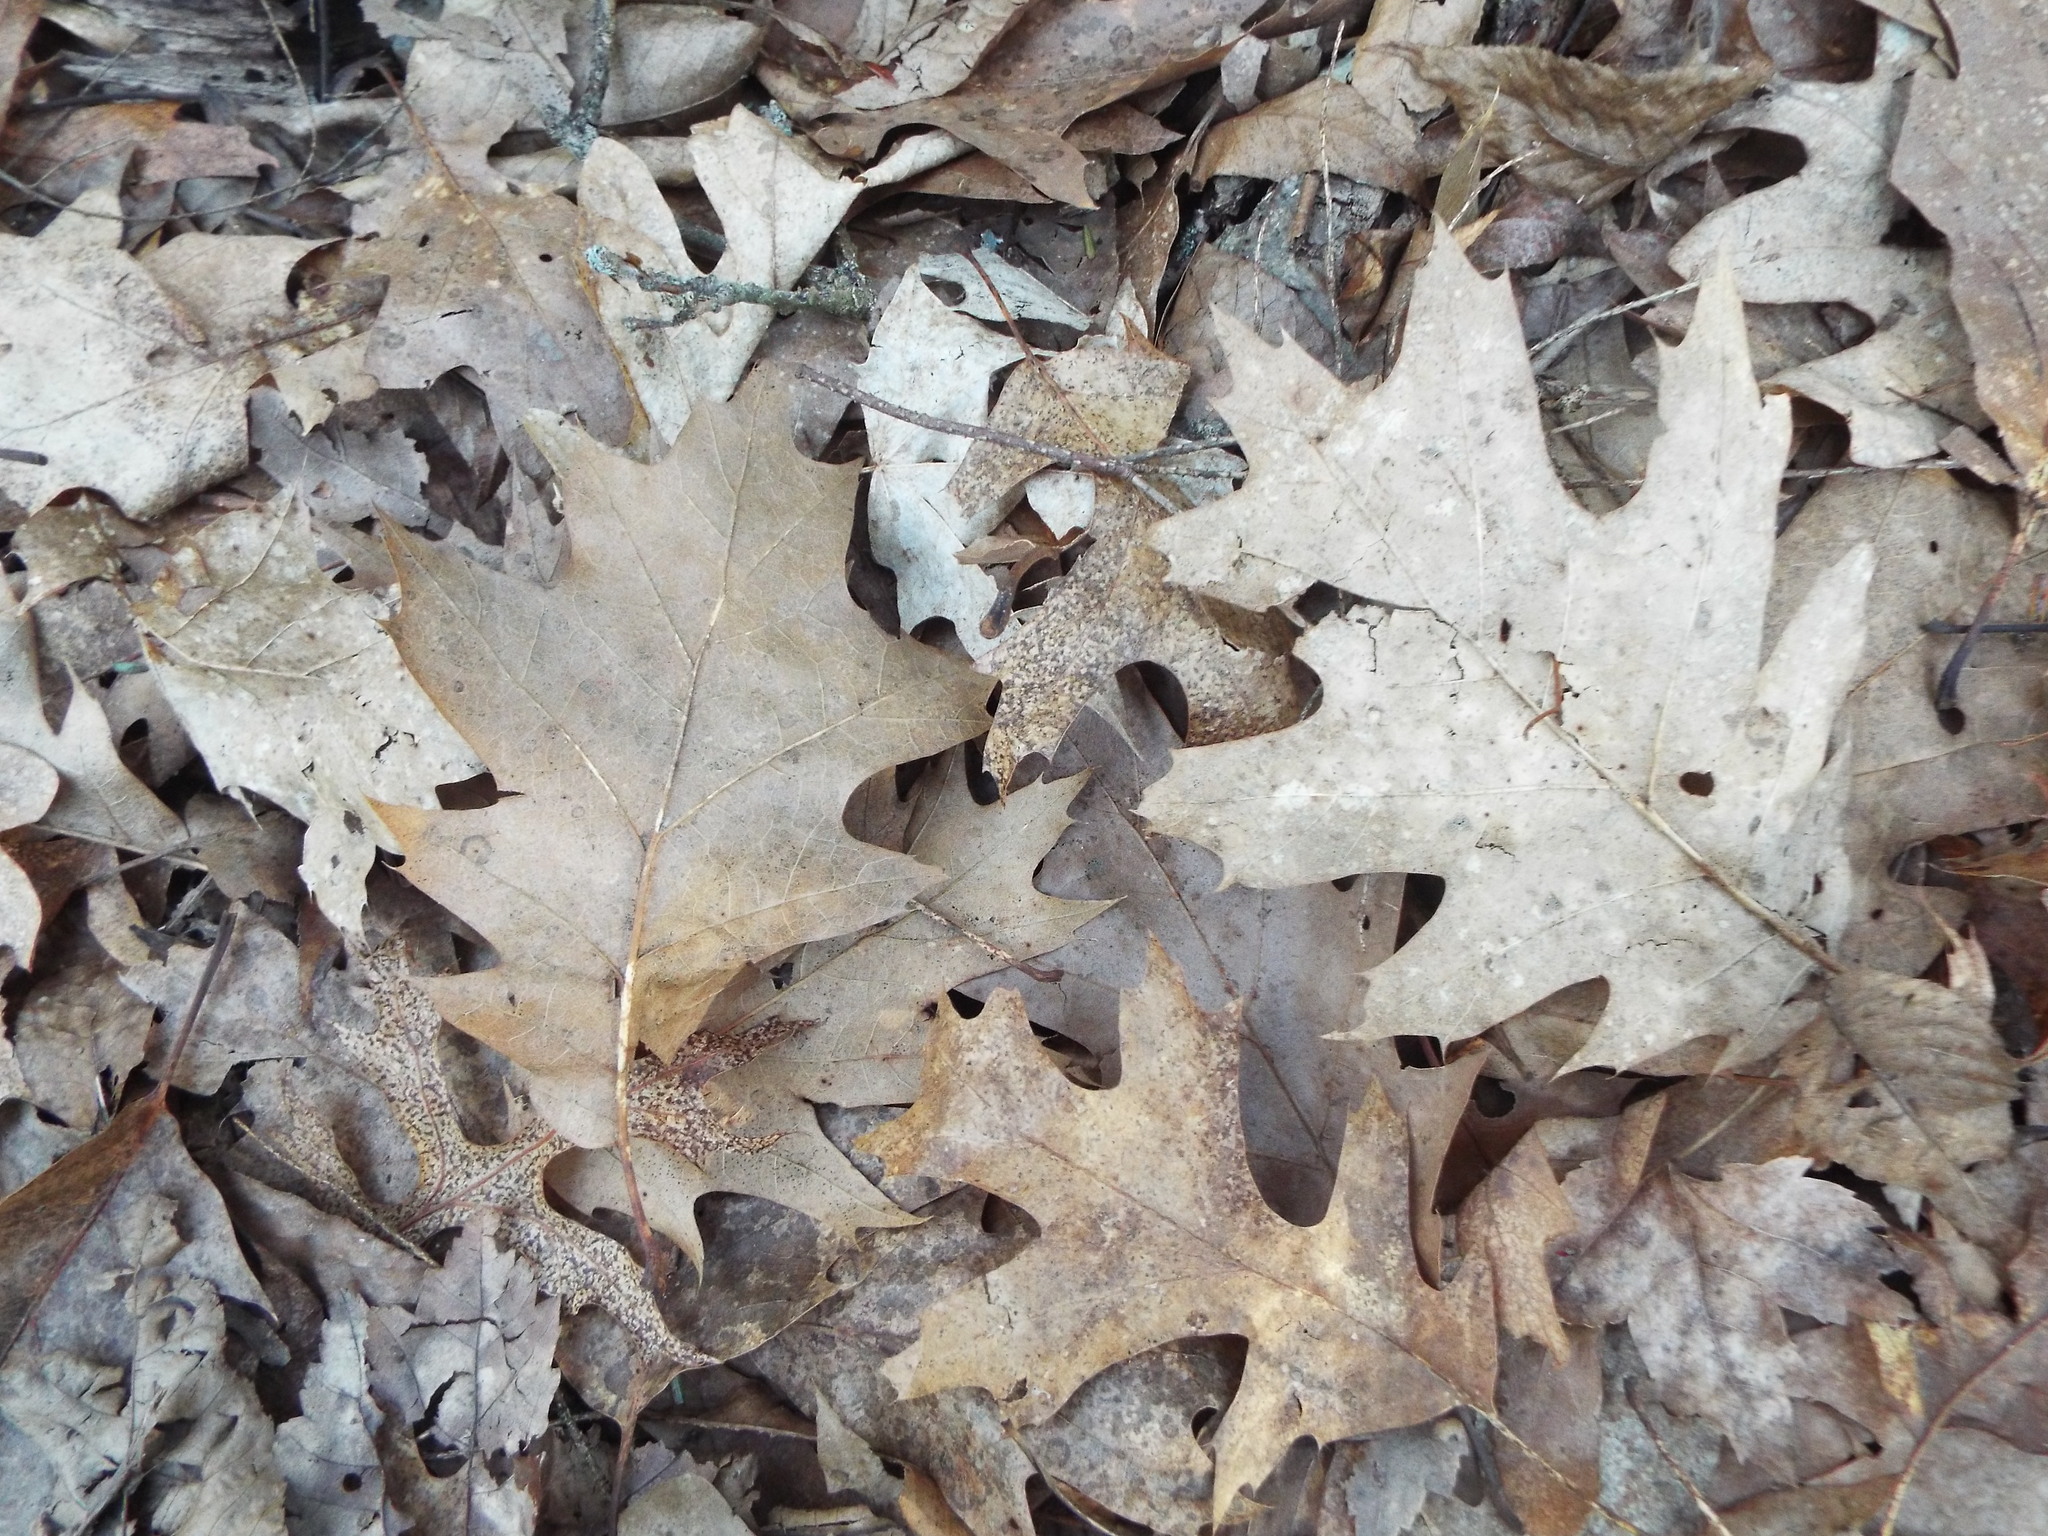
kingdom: Plantae
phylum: Tracheophyta
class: Magnoliopsida
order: Fagales
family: Fagaceae
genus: Quercus
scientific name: Quercus rubra
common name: Red oak
